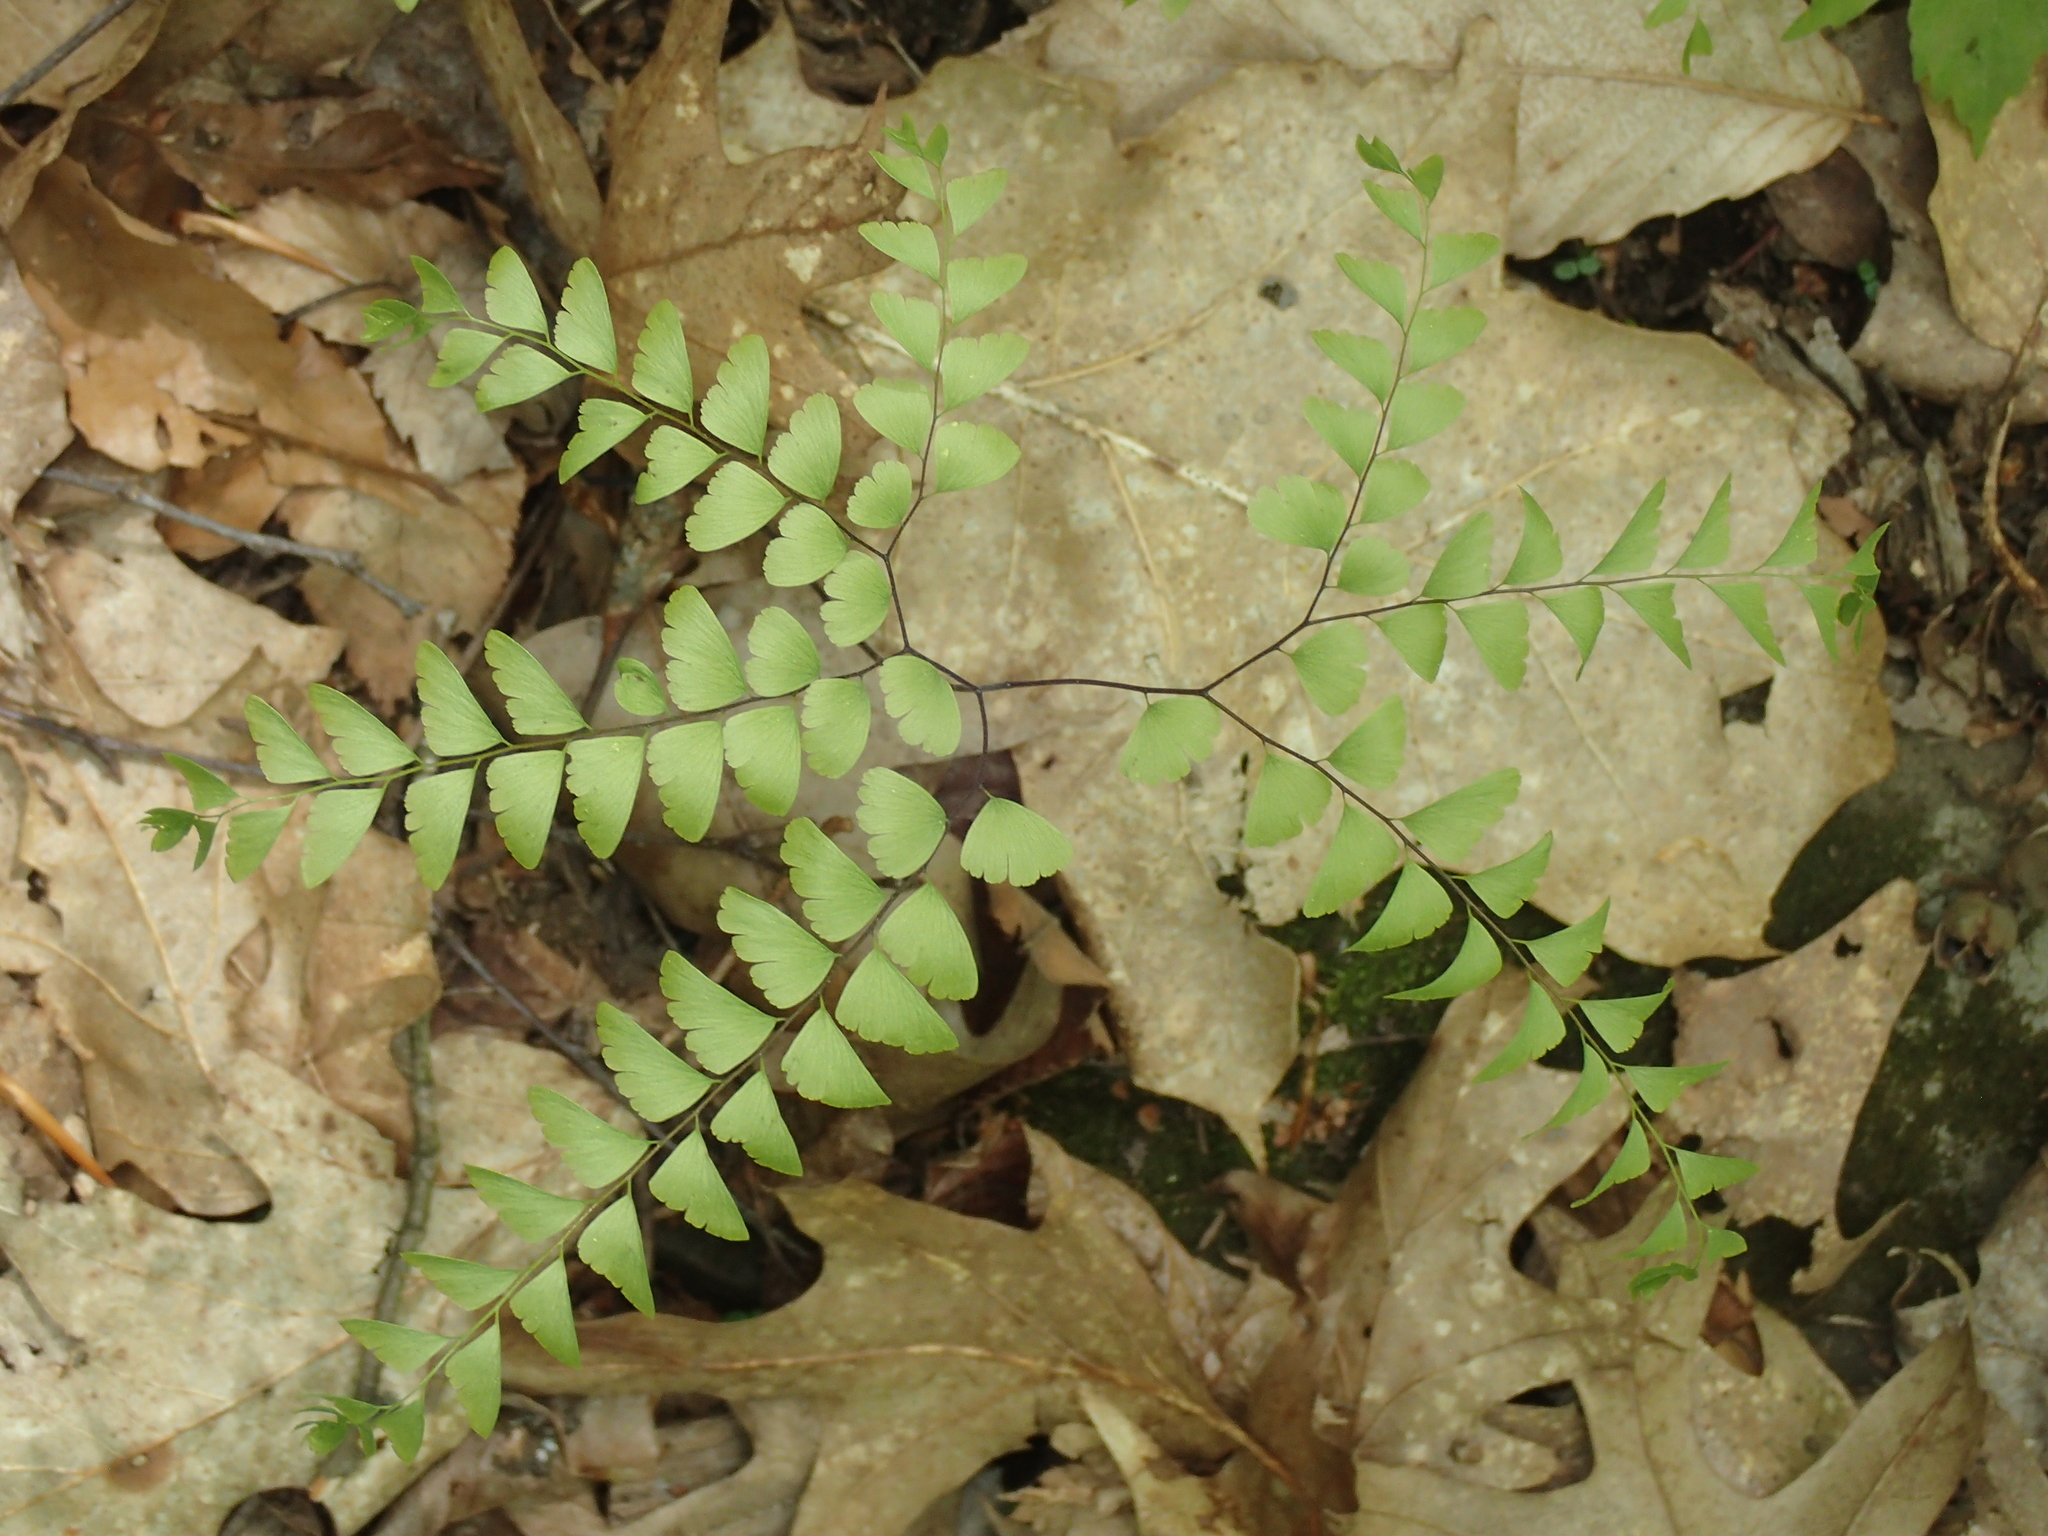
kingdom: Plantae
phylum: Tracheophyta
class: Polypodiopsida
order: Polypodiales
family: Pteridaceae
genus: Adiantum
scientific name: Adiantum pedatum
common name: Five-finger fern
